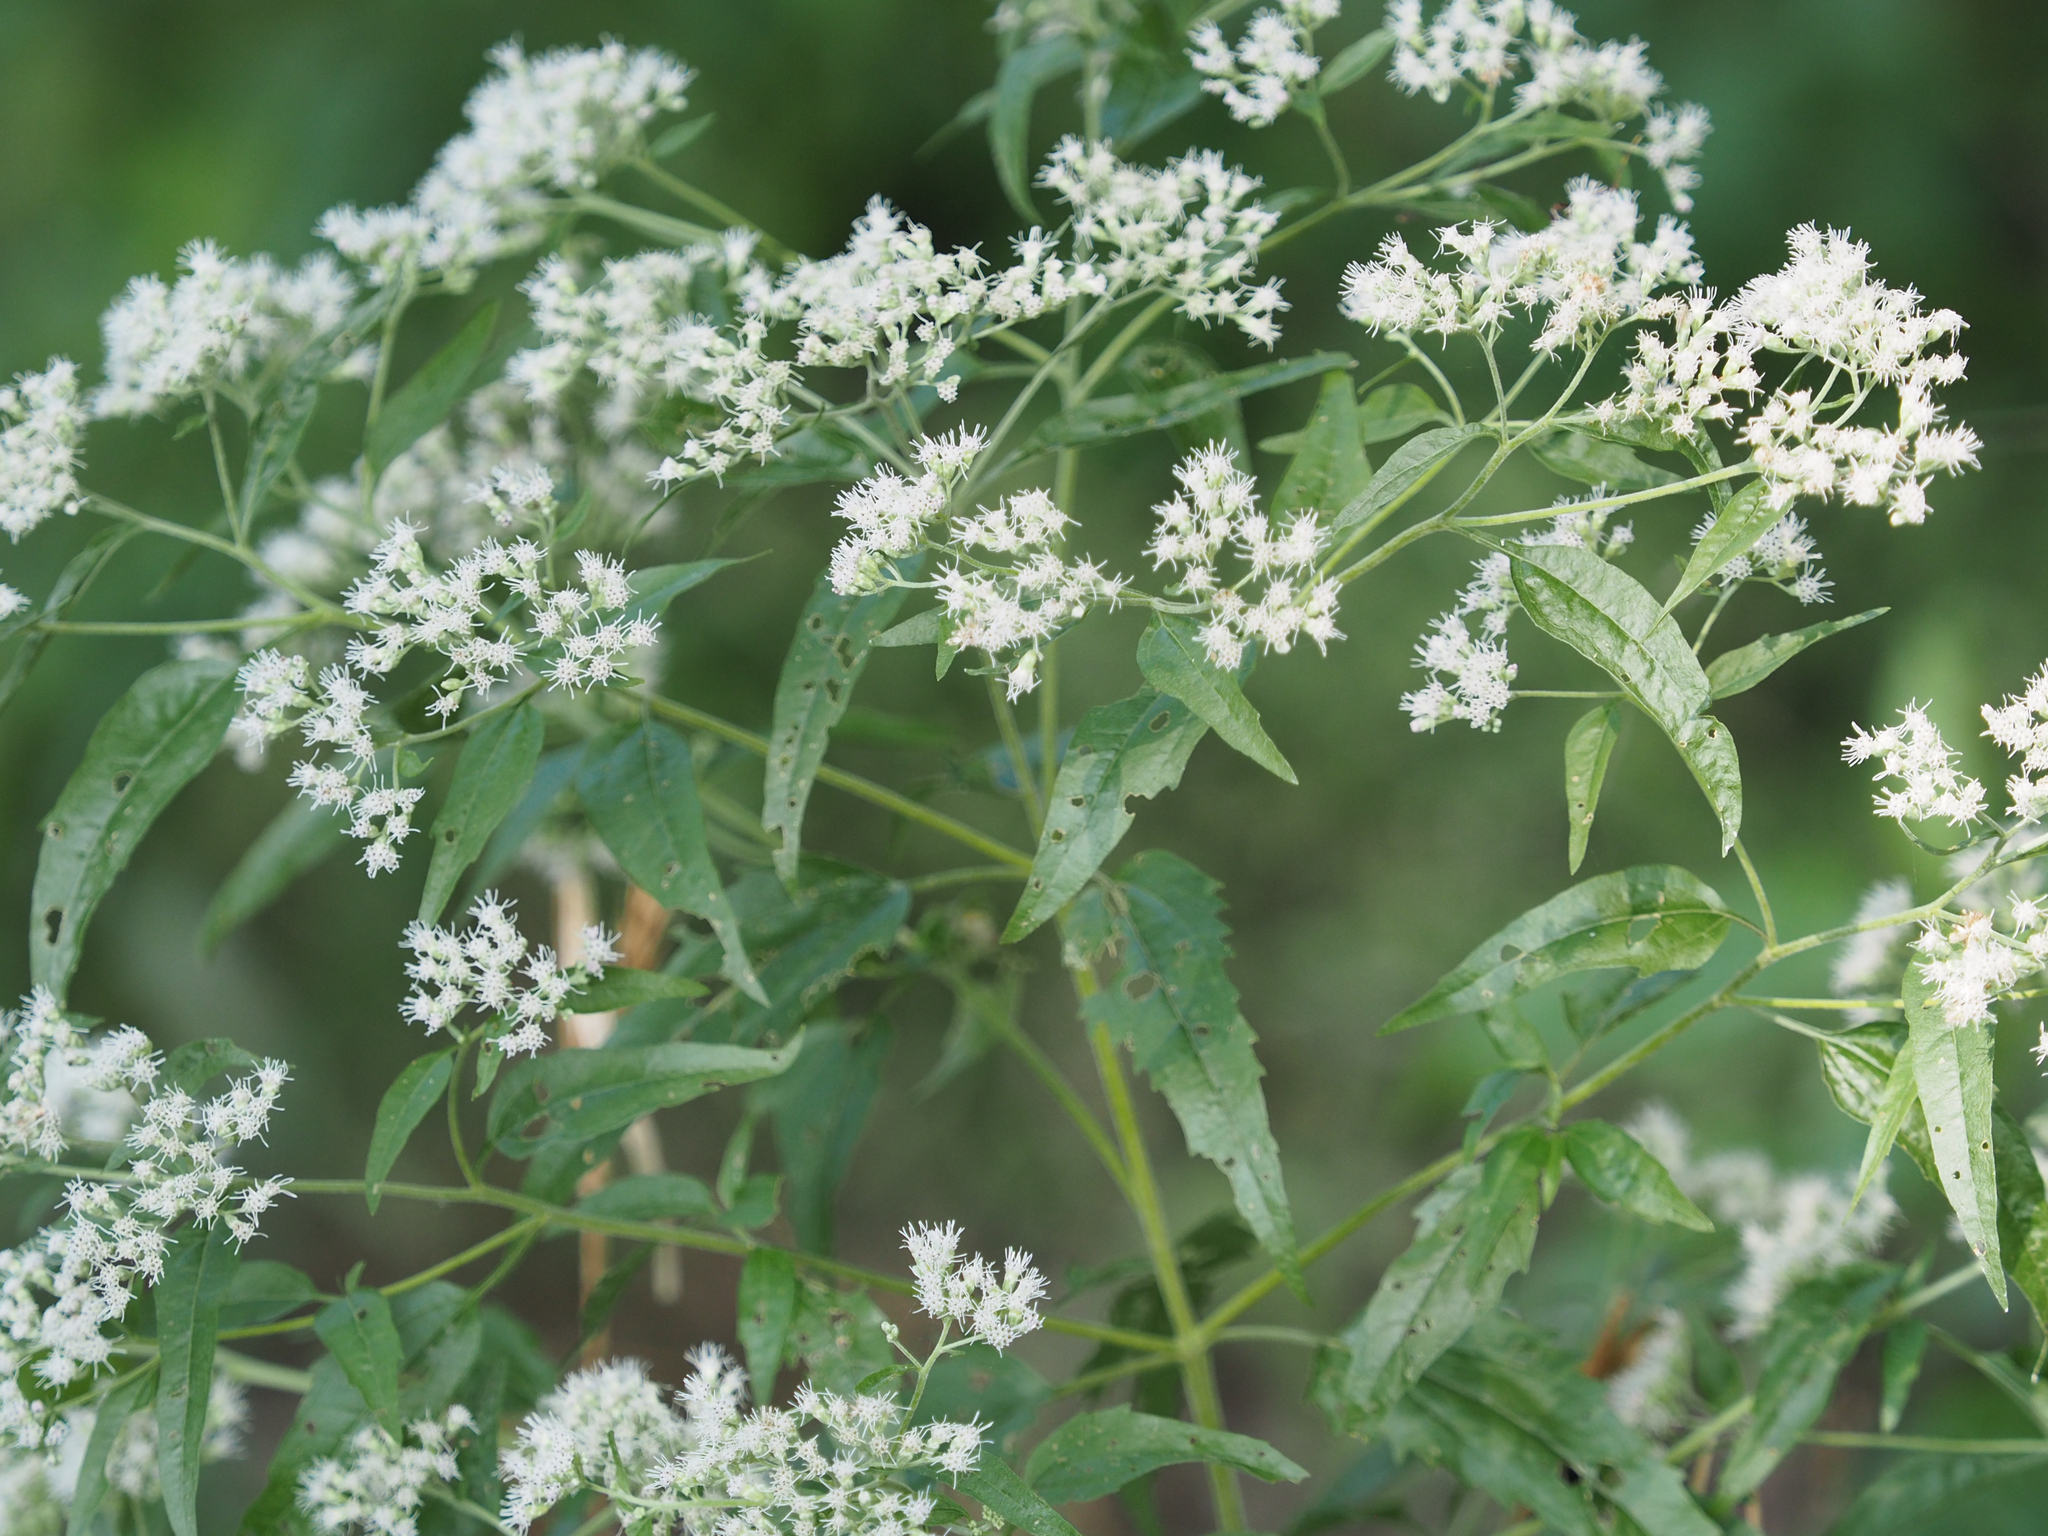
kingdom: Plantae
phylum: Tracheophyta
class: Magnoliopsida
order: Asterales
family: Asteraceae
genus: Eupatorium
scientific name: Eupatorium serotinum
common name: Late boneset
